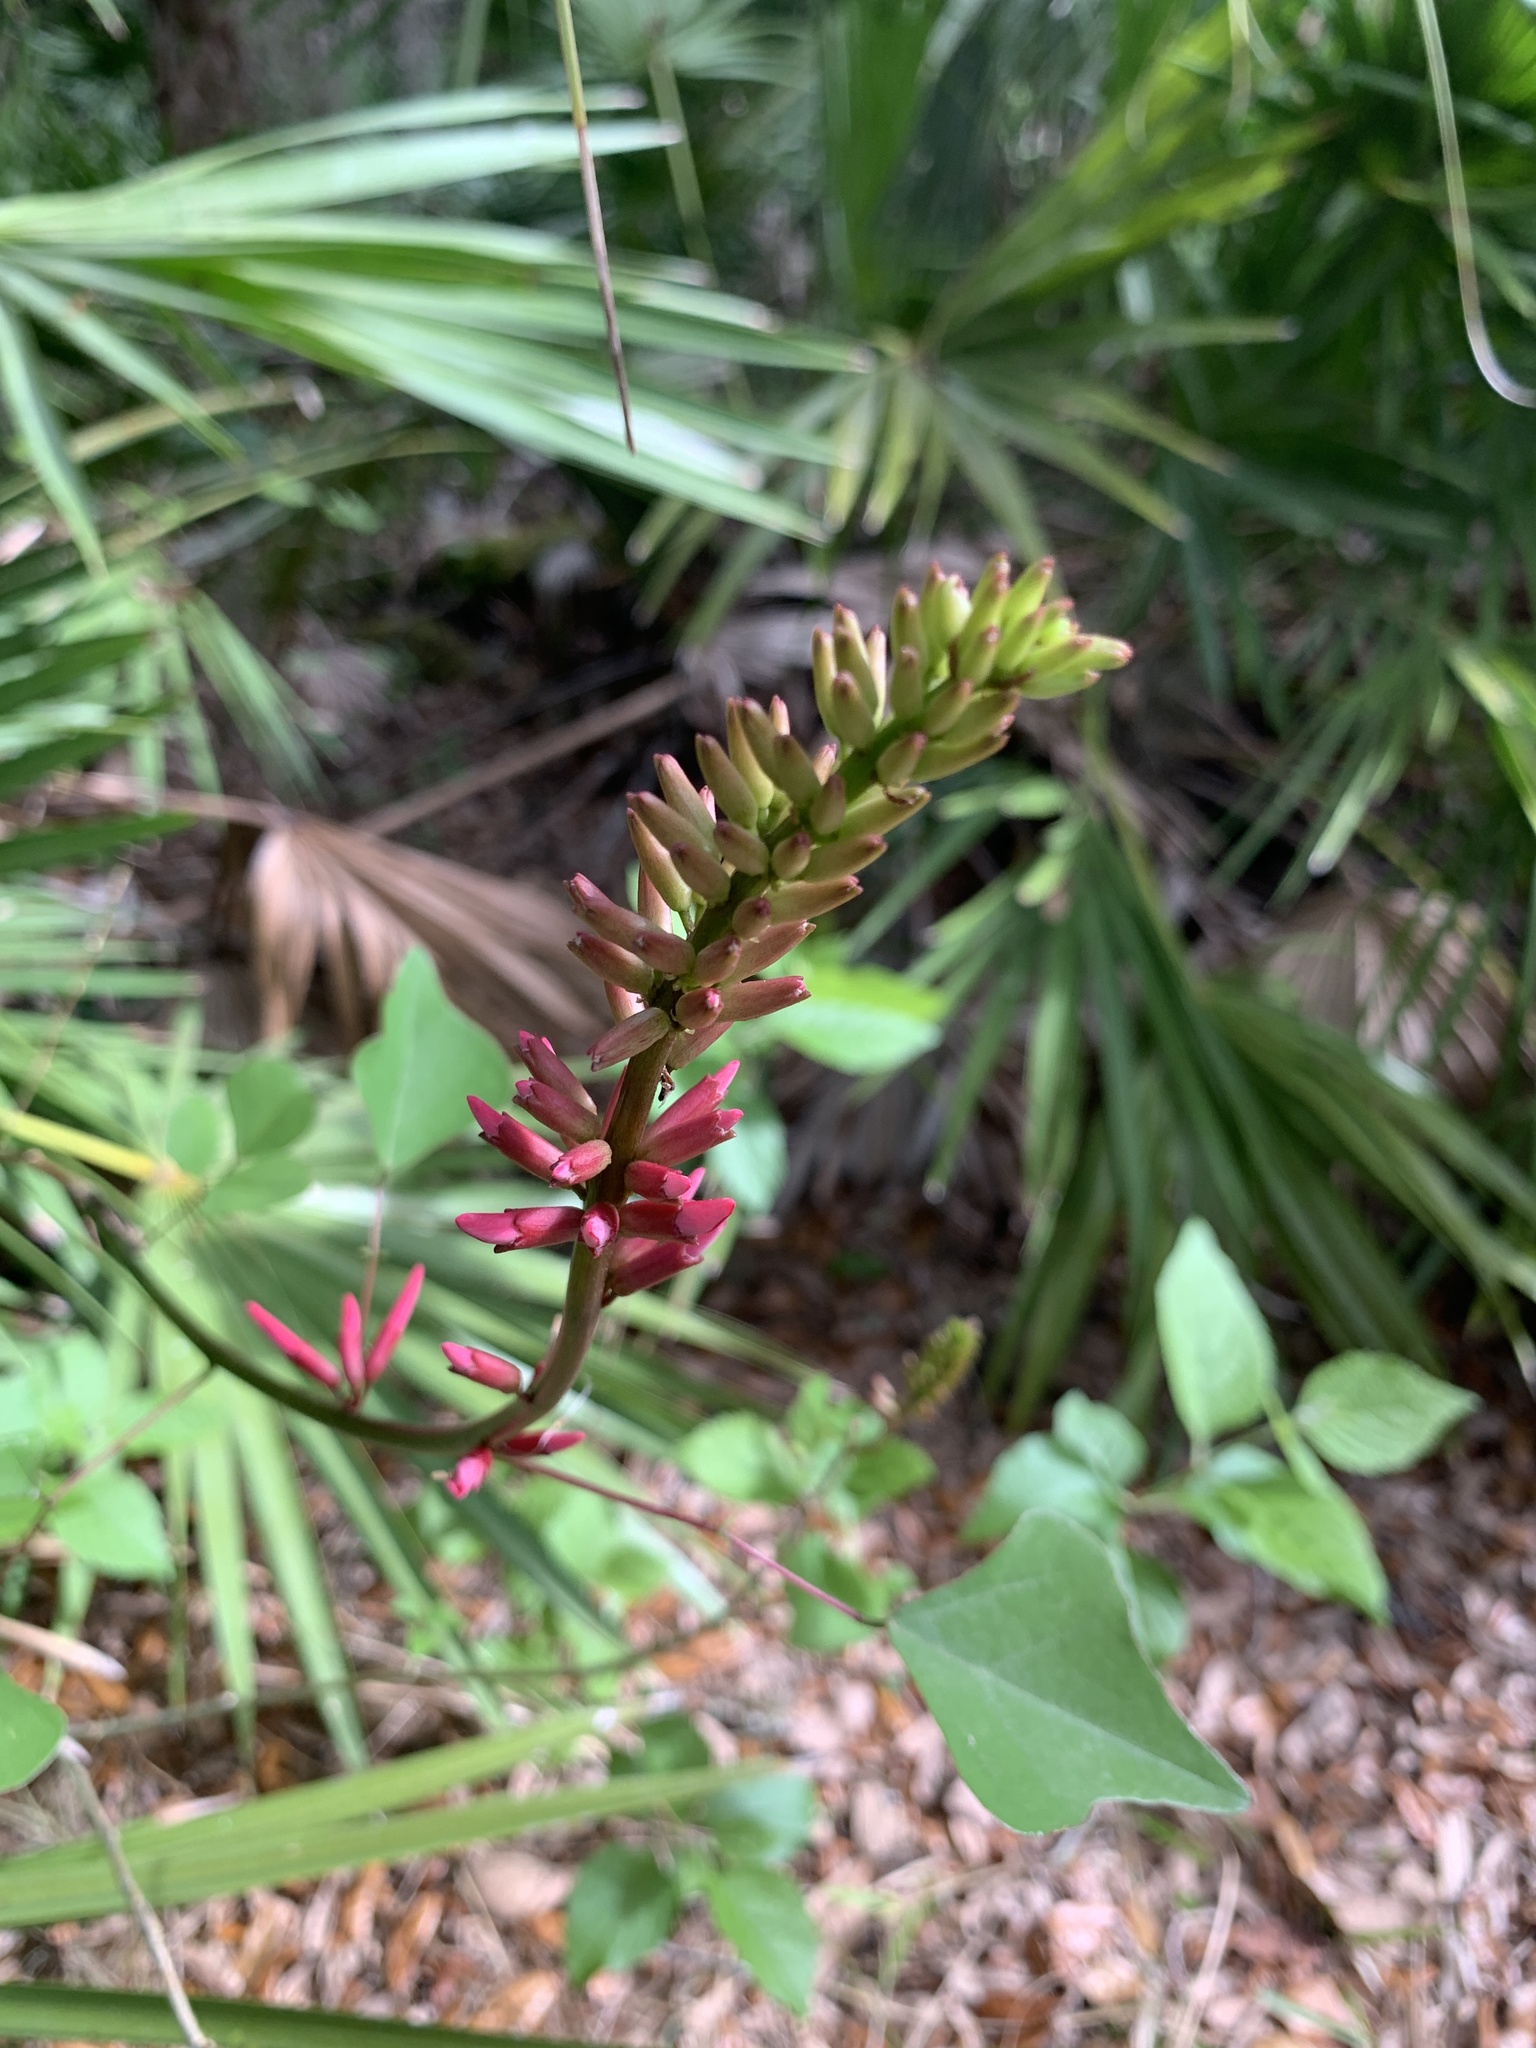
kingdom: Plantae
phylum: Tracheophyta
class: Magnoliopsida
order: Fabales
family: Fabaceae
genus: Erythrina
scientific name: Erythrina herbacea
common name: Coral-bean
